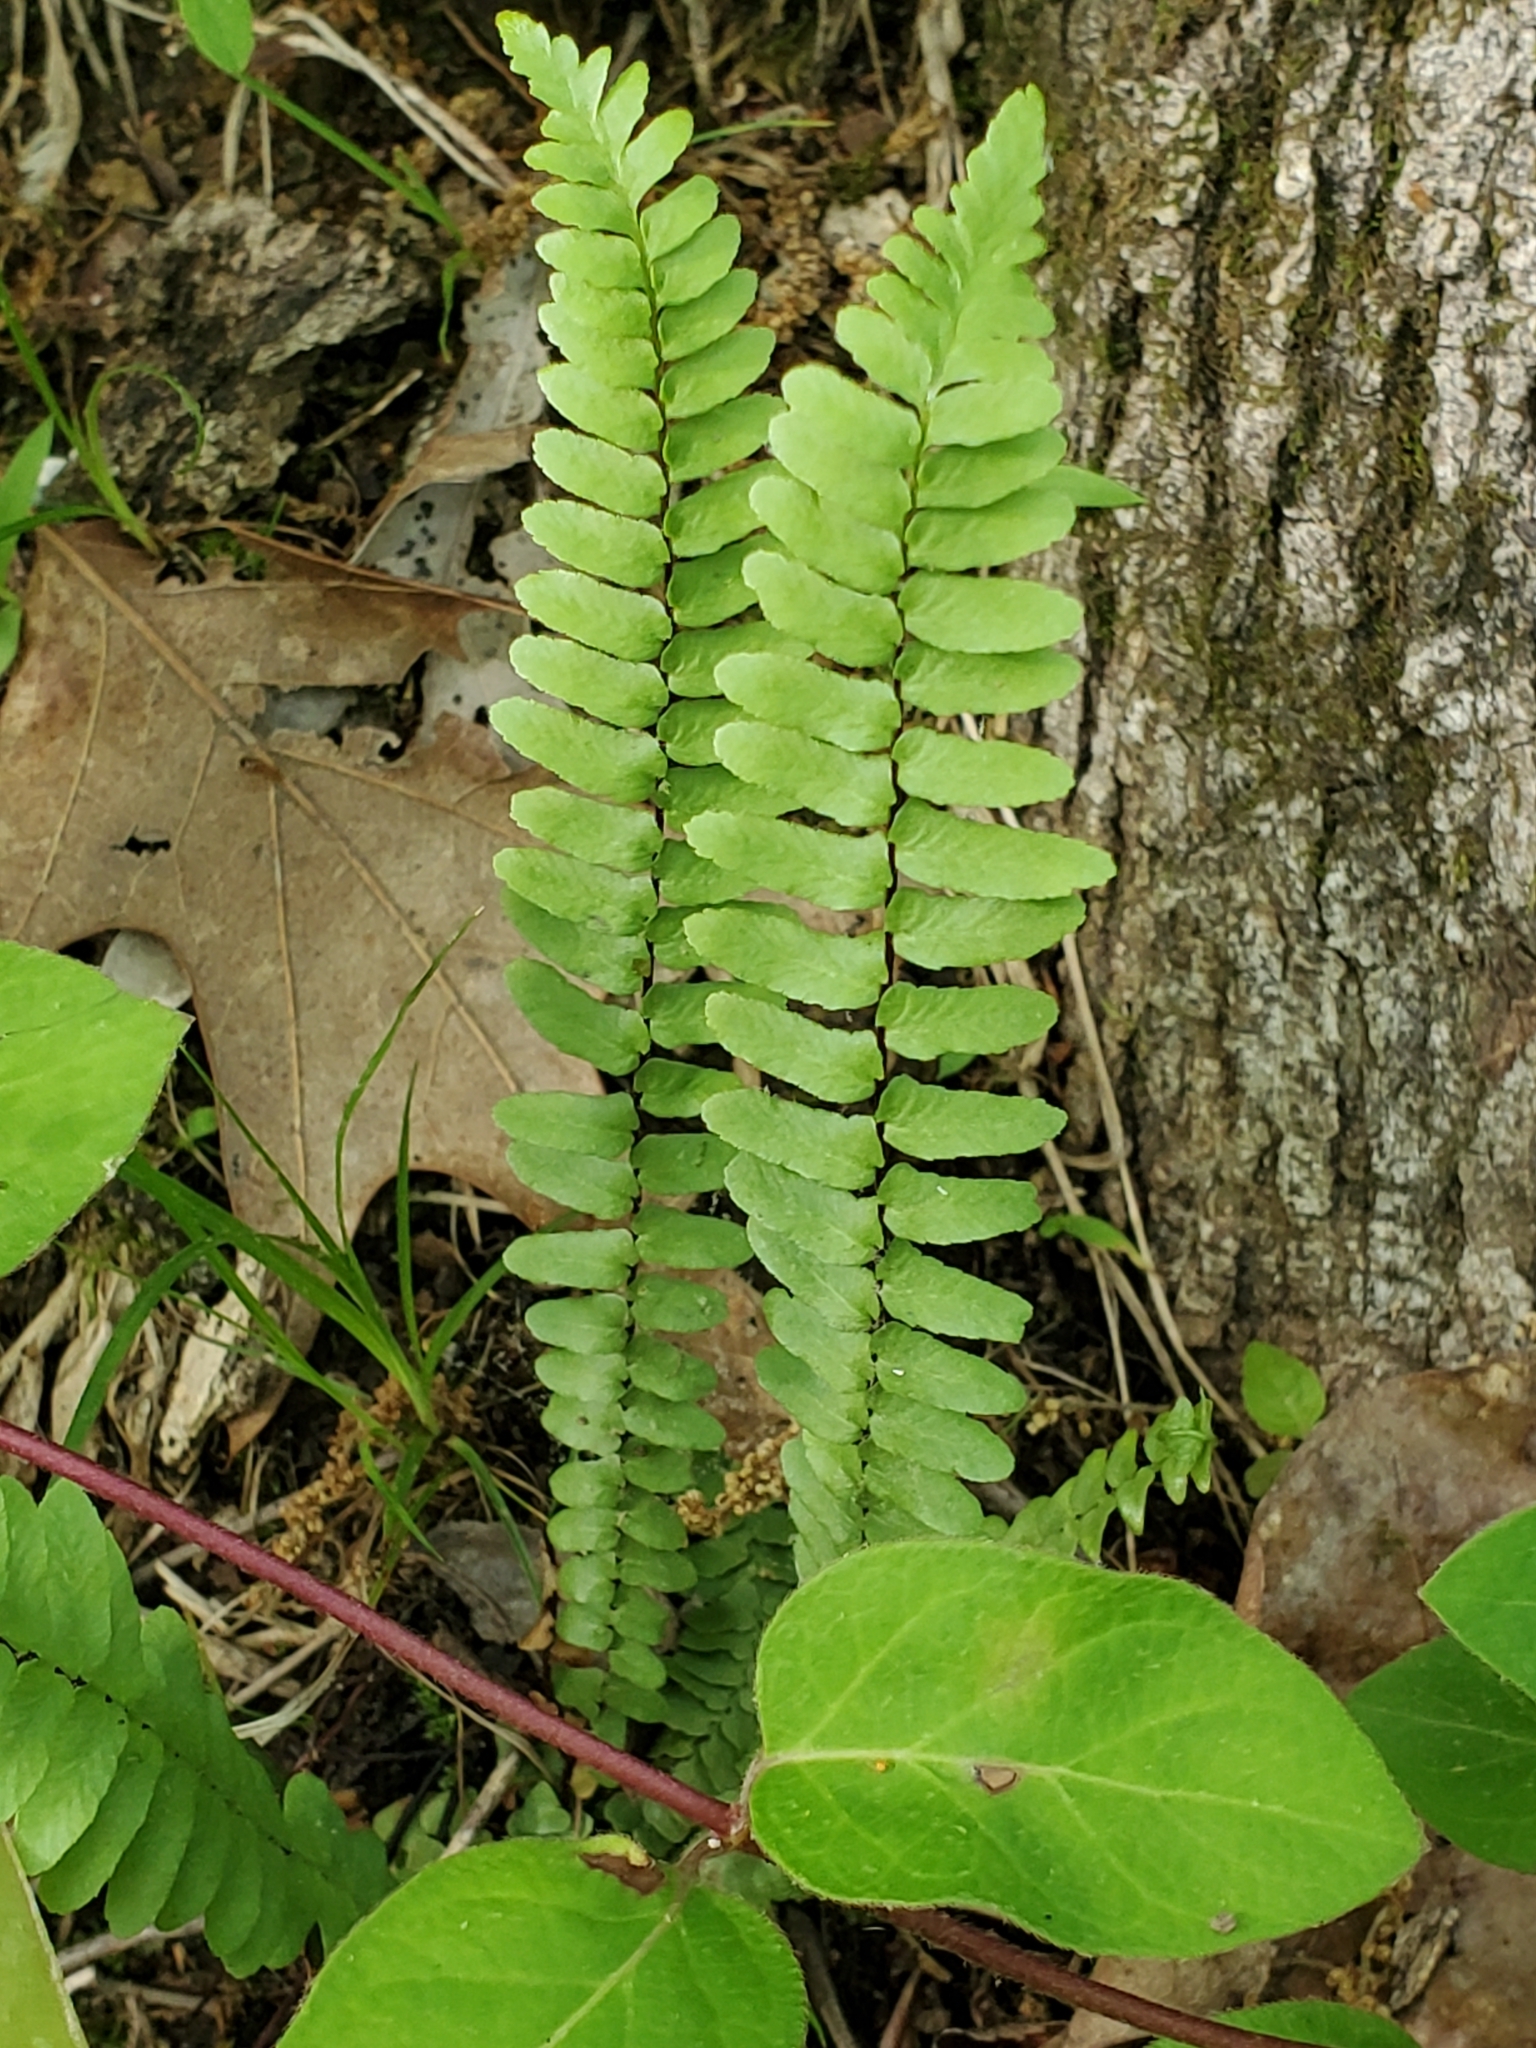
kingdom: Plantae
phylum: Tracheophyta
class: Polypodiopsida
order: Polypodiales
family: Aspleniaceae
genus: Asplenium
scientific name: Asplenium platyneuron
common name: Ebony spleenwort
